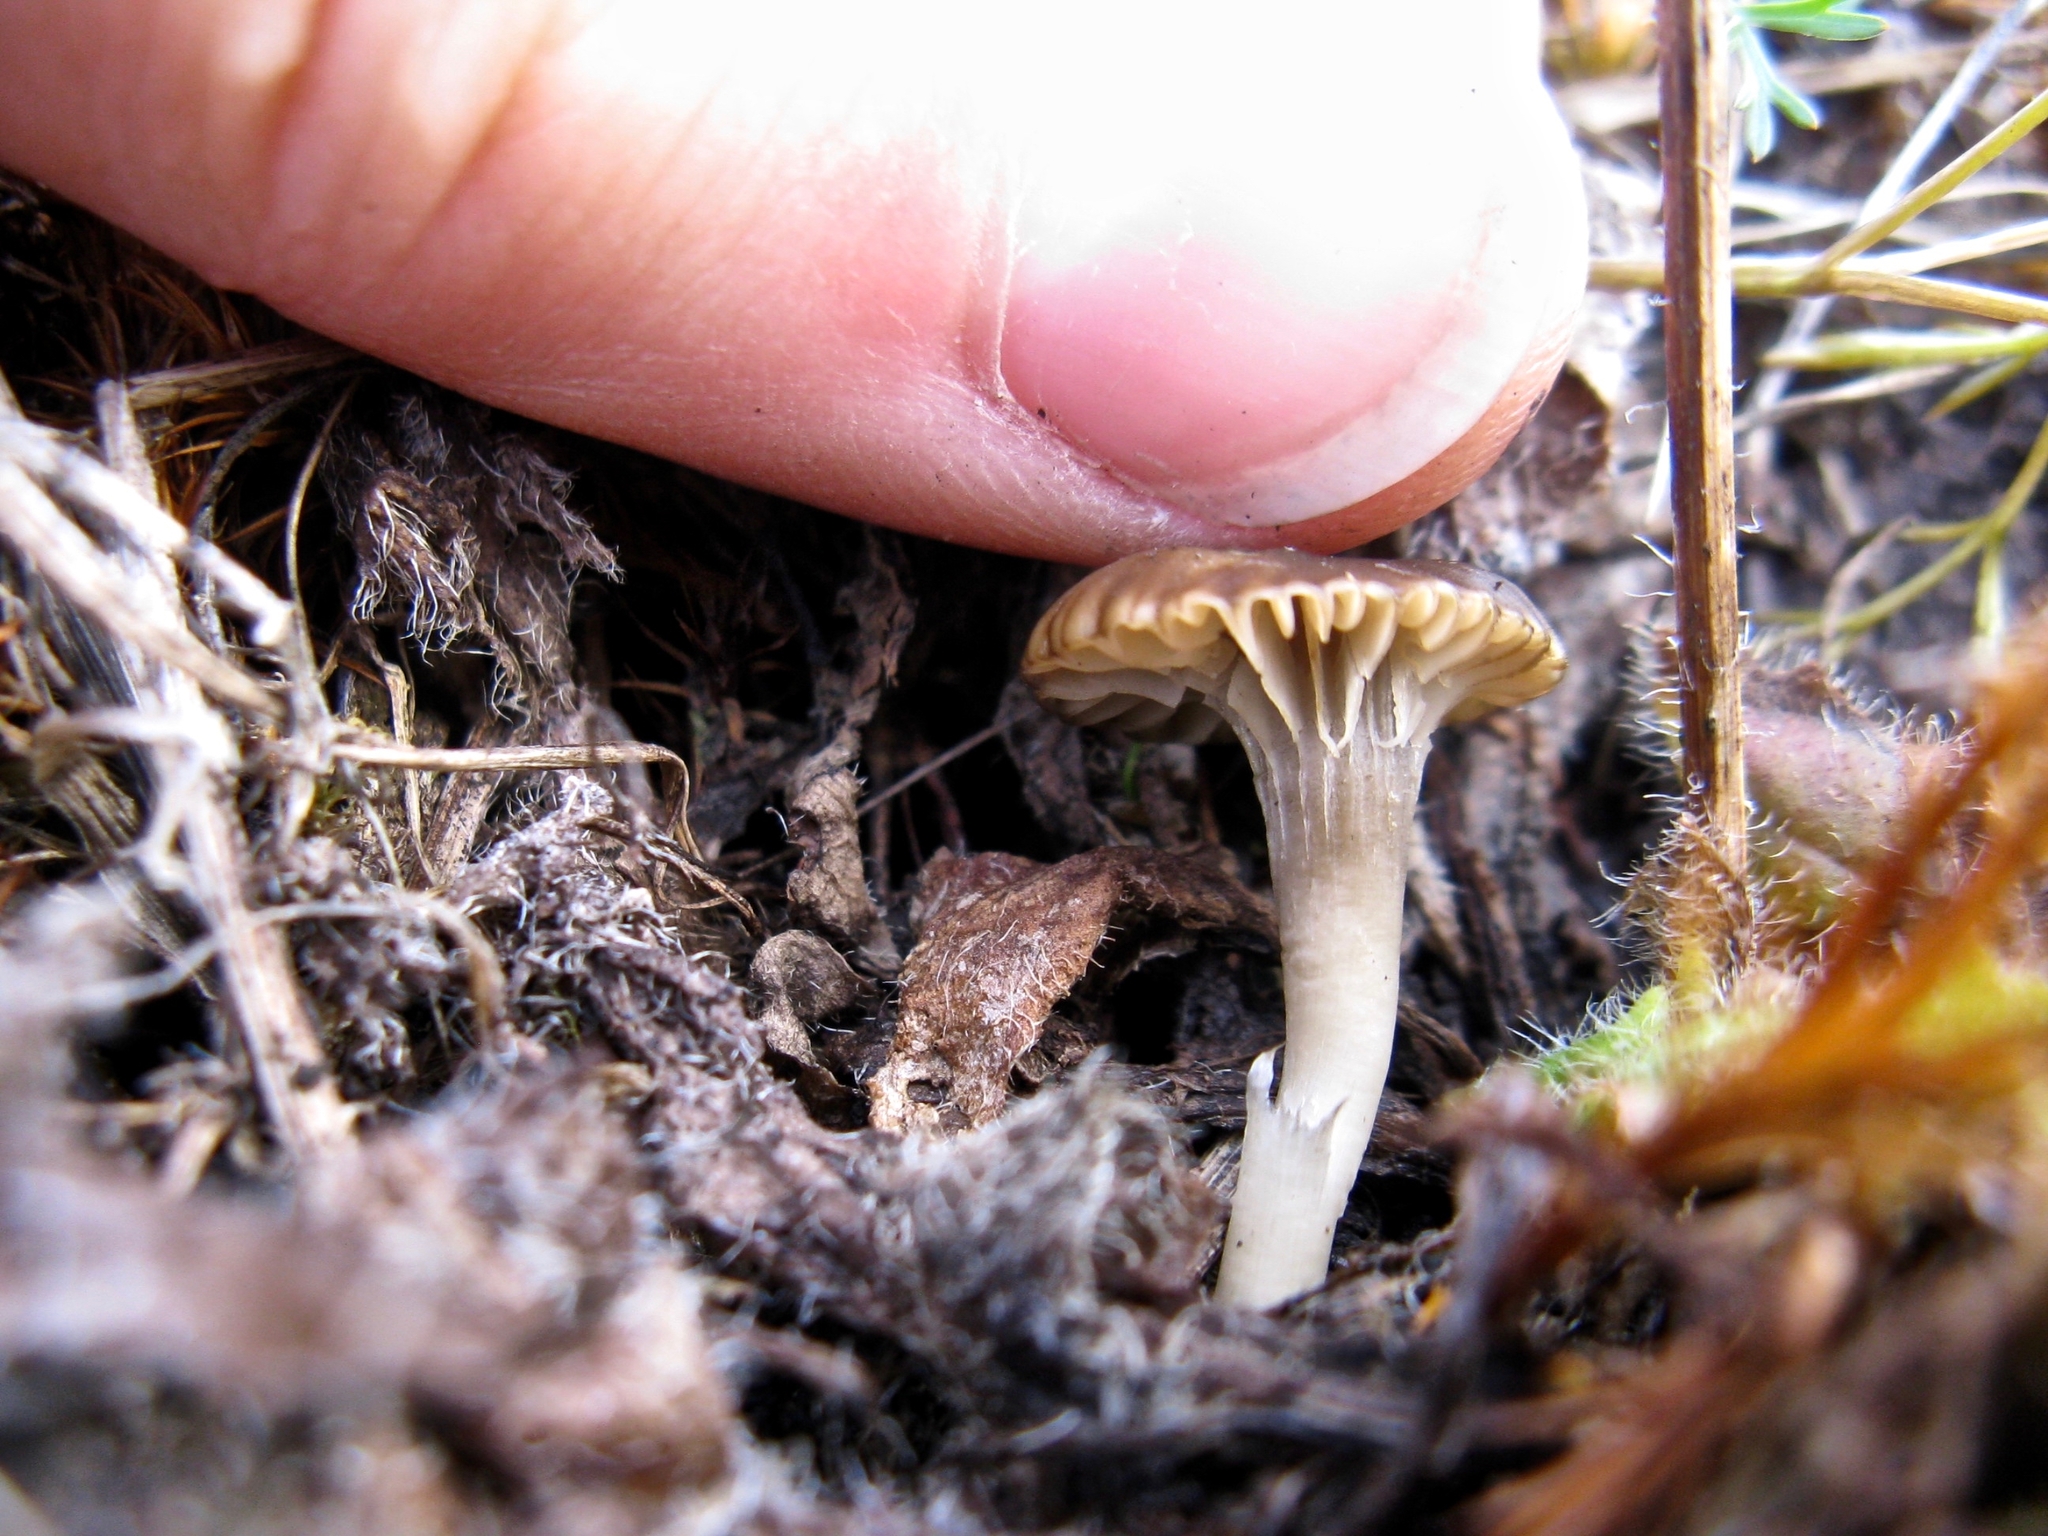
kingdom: Fungi
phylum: Basidiomycota
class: Agaricomycetes
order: Agaricales
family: Hygrophoraceae
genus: Cuphophyllus
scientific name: Cuphophyllus recurvatus
